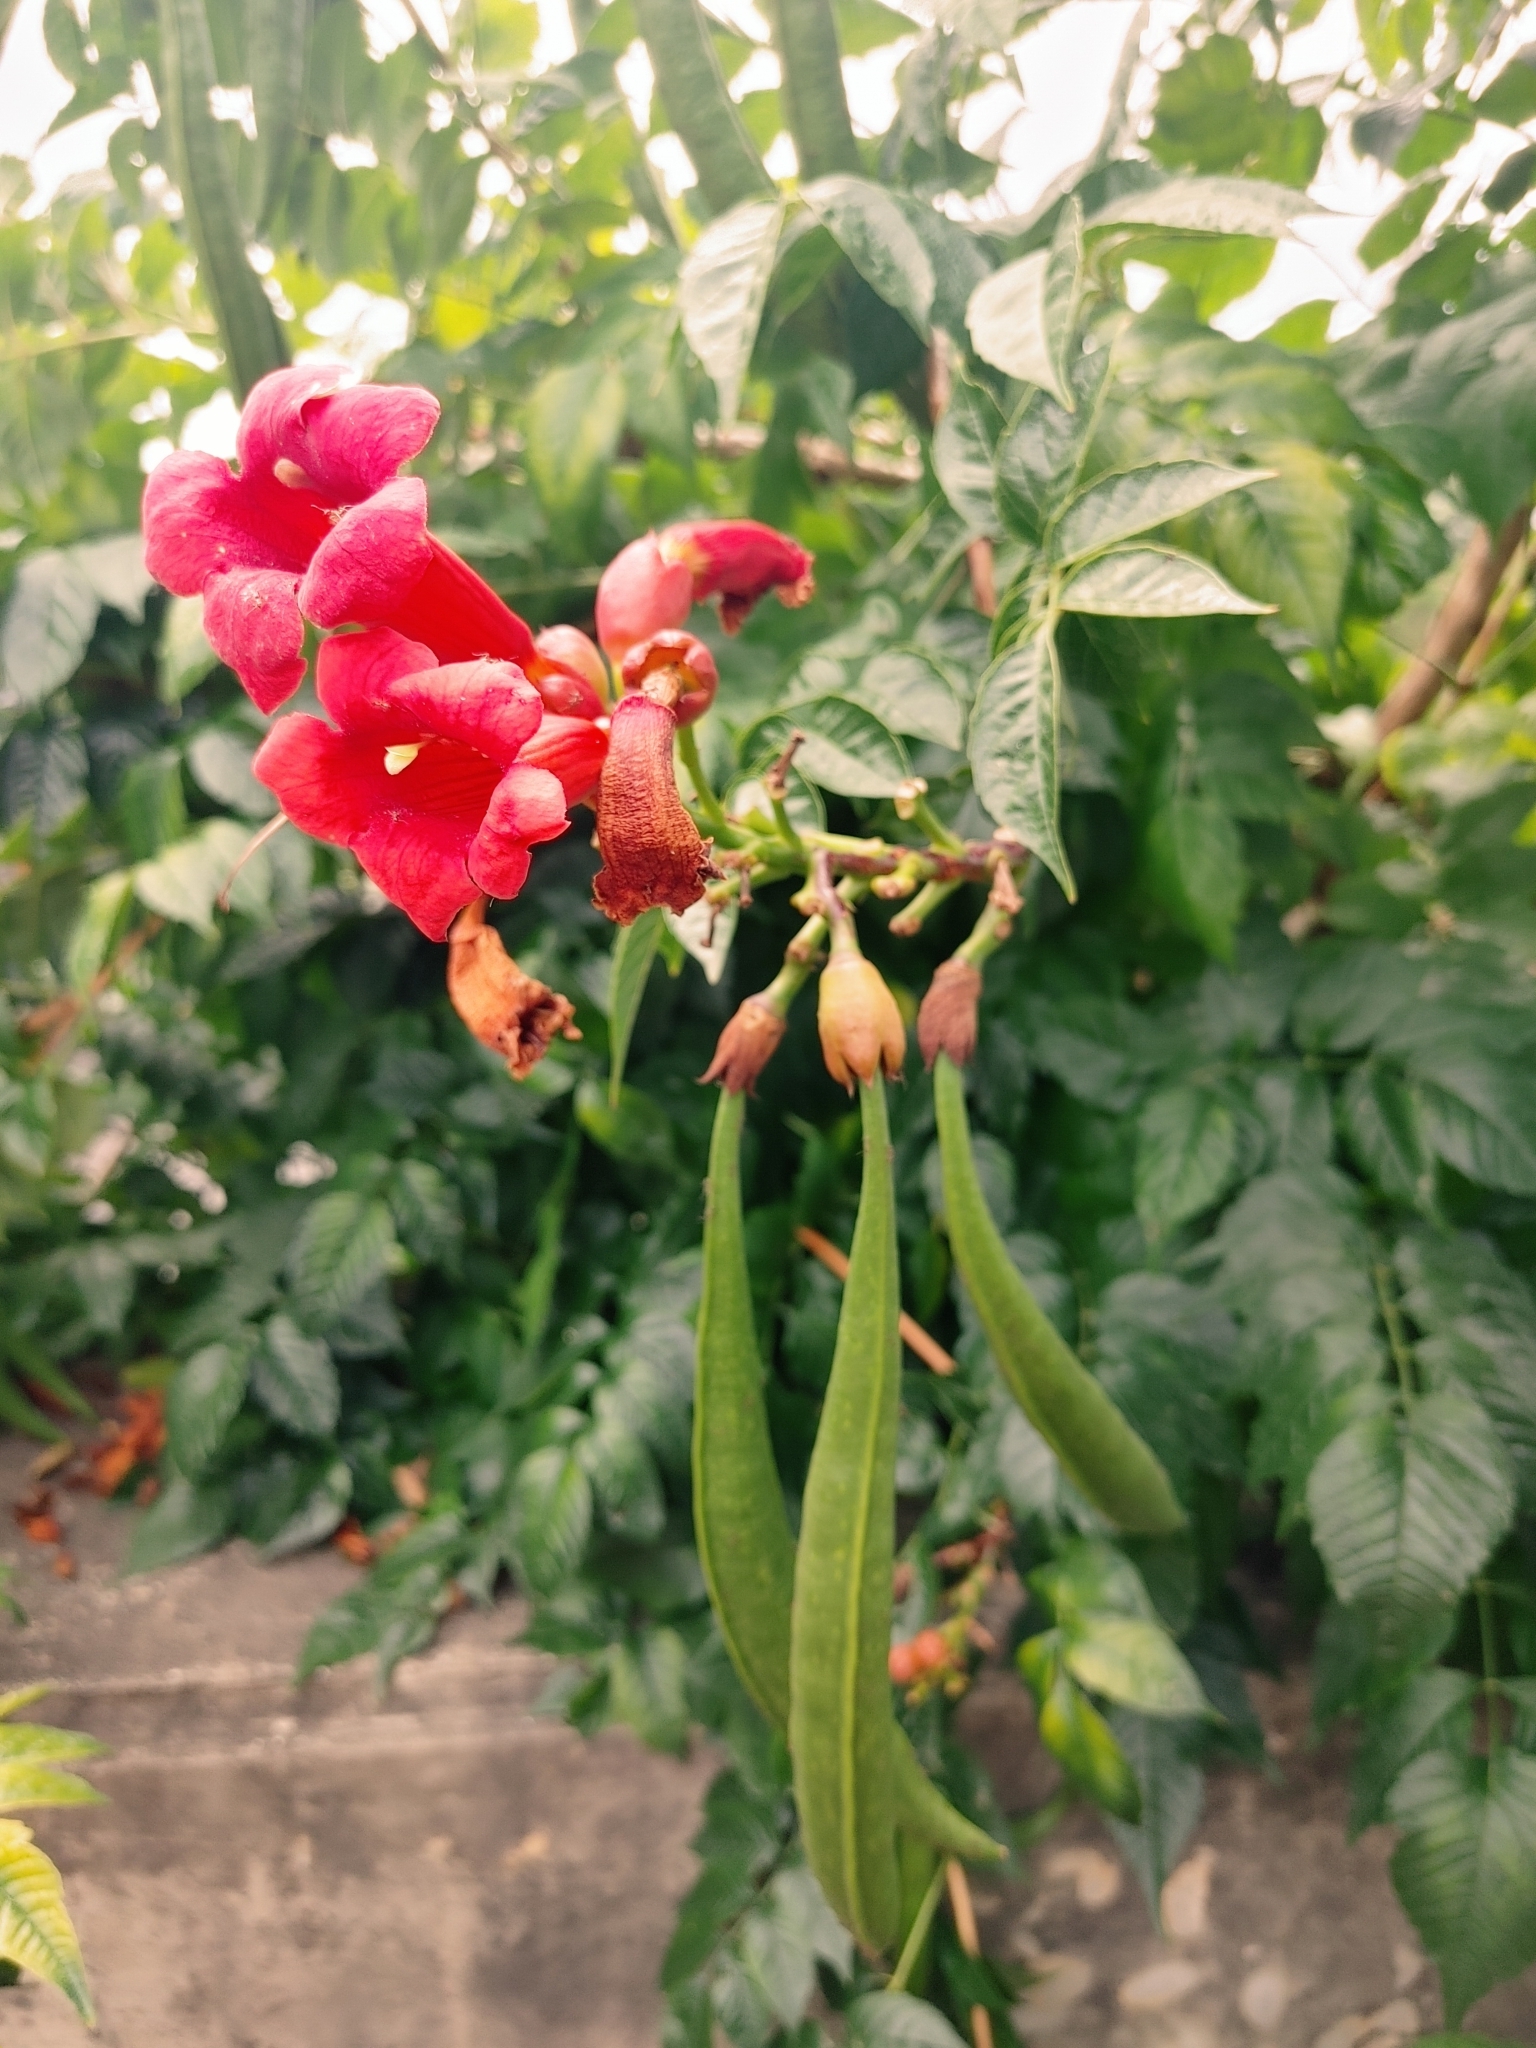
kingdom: Plantae
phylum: Tracheophyta
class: Magnoliopsida
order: Lamiales
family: Bignoniaceae
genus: Campsis
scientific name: Campsis radicans
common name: Trumpet-creeper
